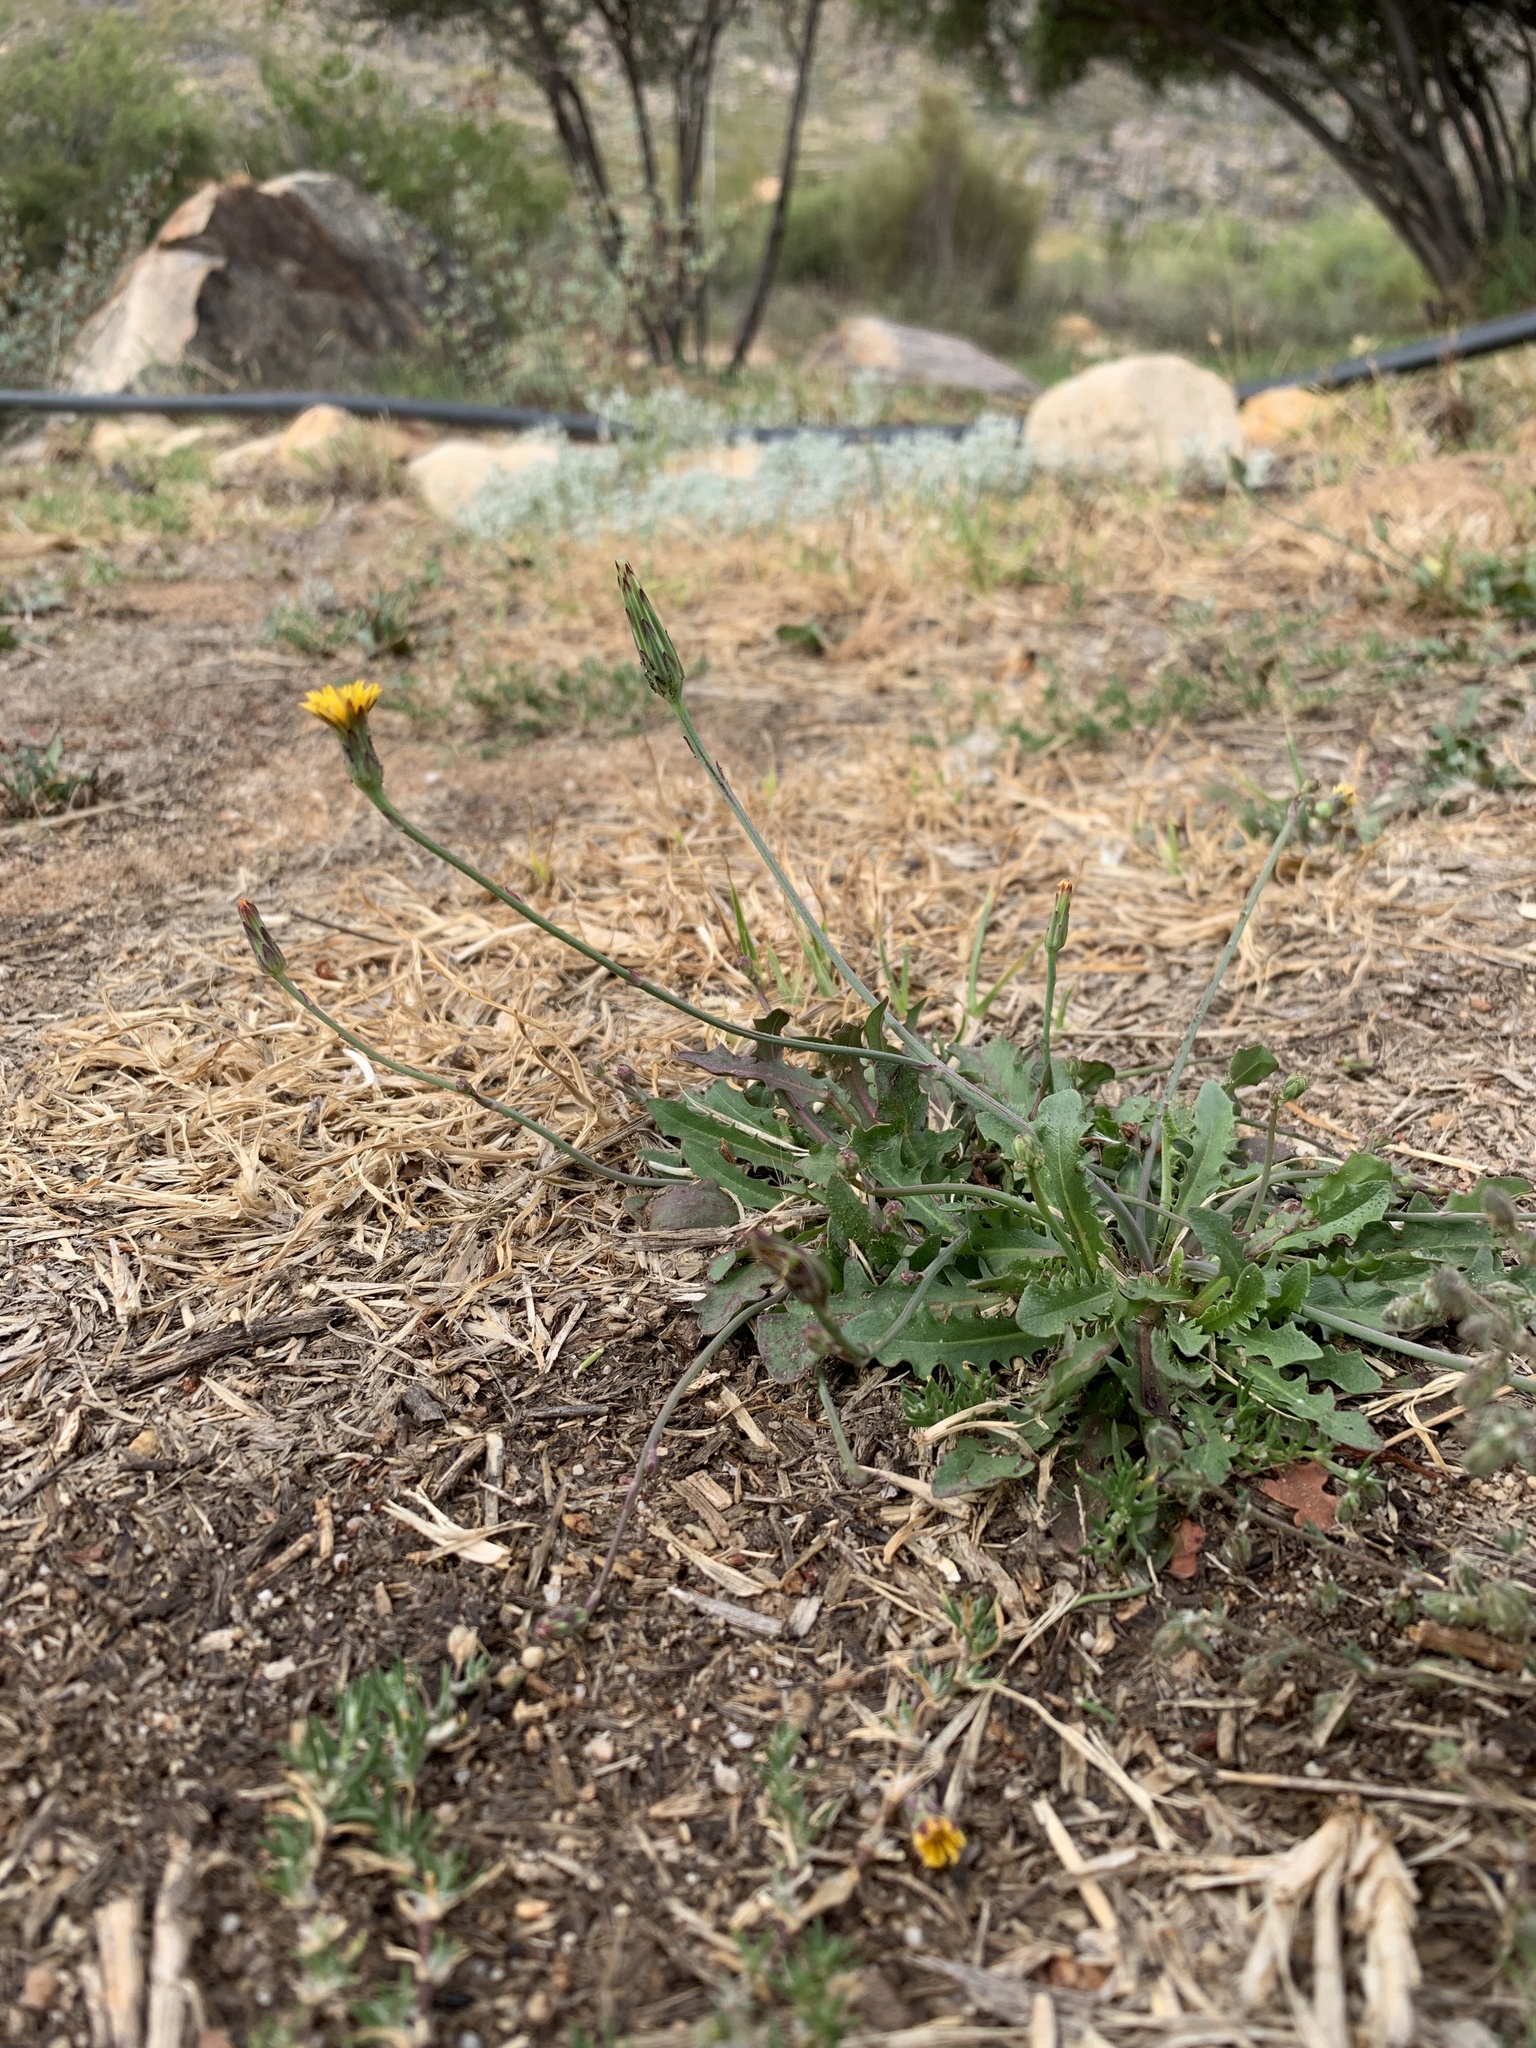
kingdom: Plantae
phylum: Tracheophyta
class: Magnoliopsida
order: Asterales
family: Asteraceae
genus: Hypochaeris
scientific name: Hypochaeris radicata
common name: Flatweed
